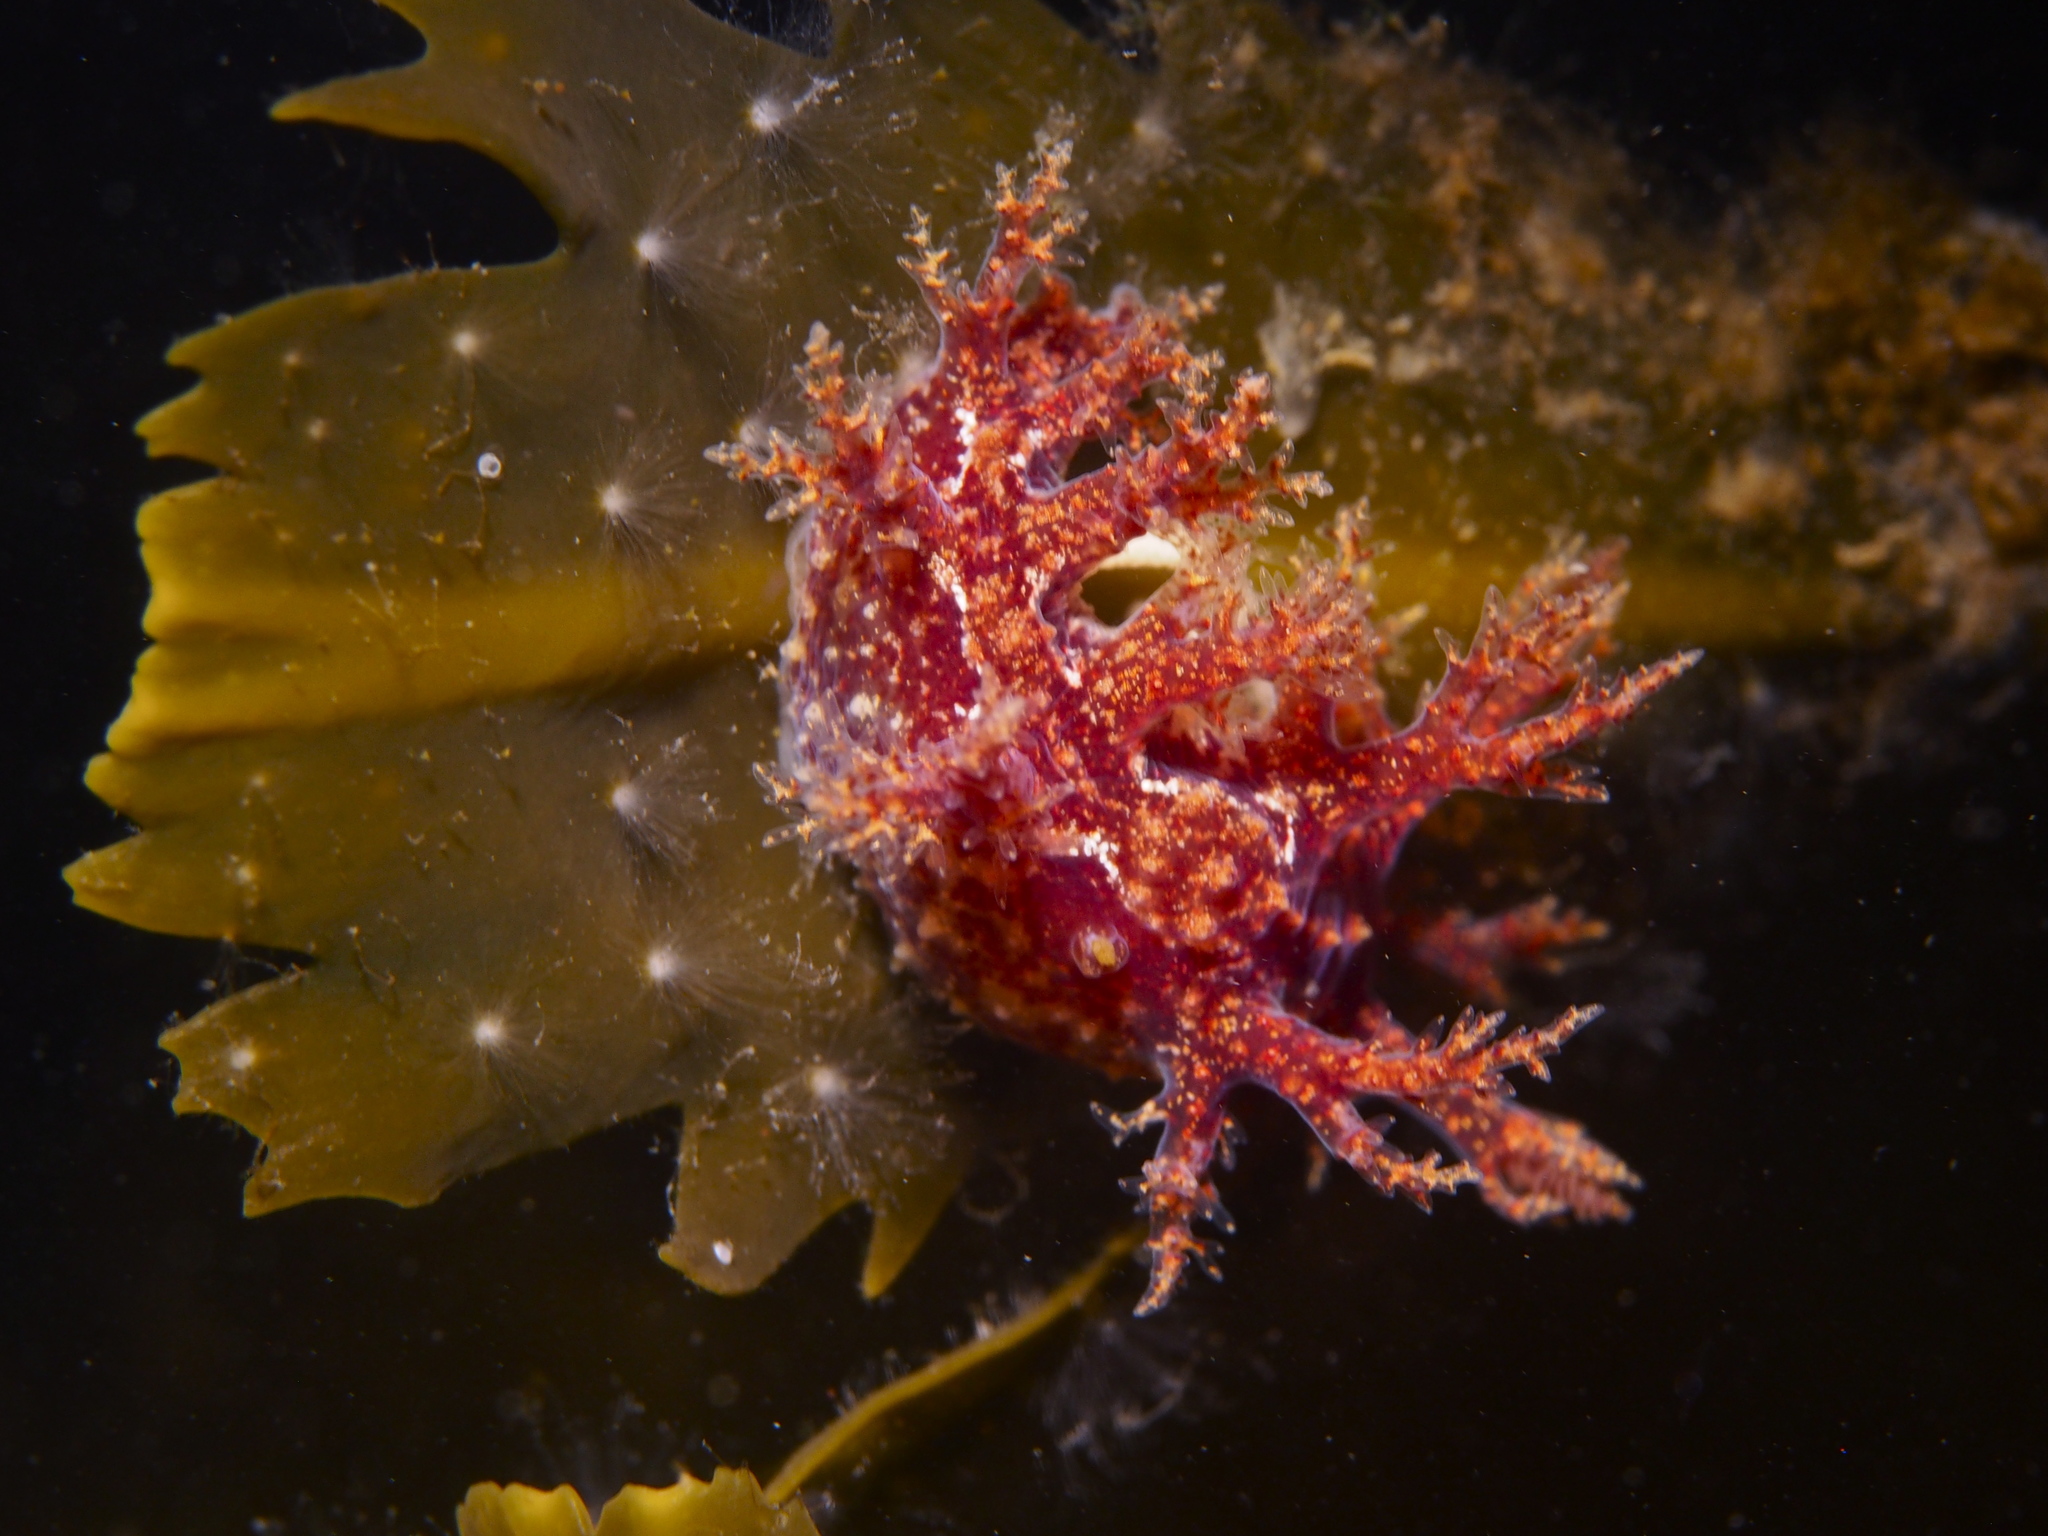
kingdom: Animalia
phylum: Mollusca
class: Gastropoda
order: Nudibranchia
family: Dendronotidae
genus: Dendronotus
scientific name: Dendronotus frondosus
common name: Bushy-backed nudibranch
